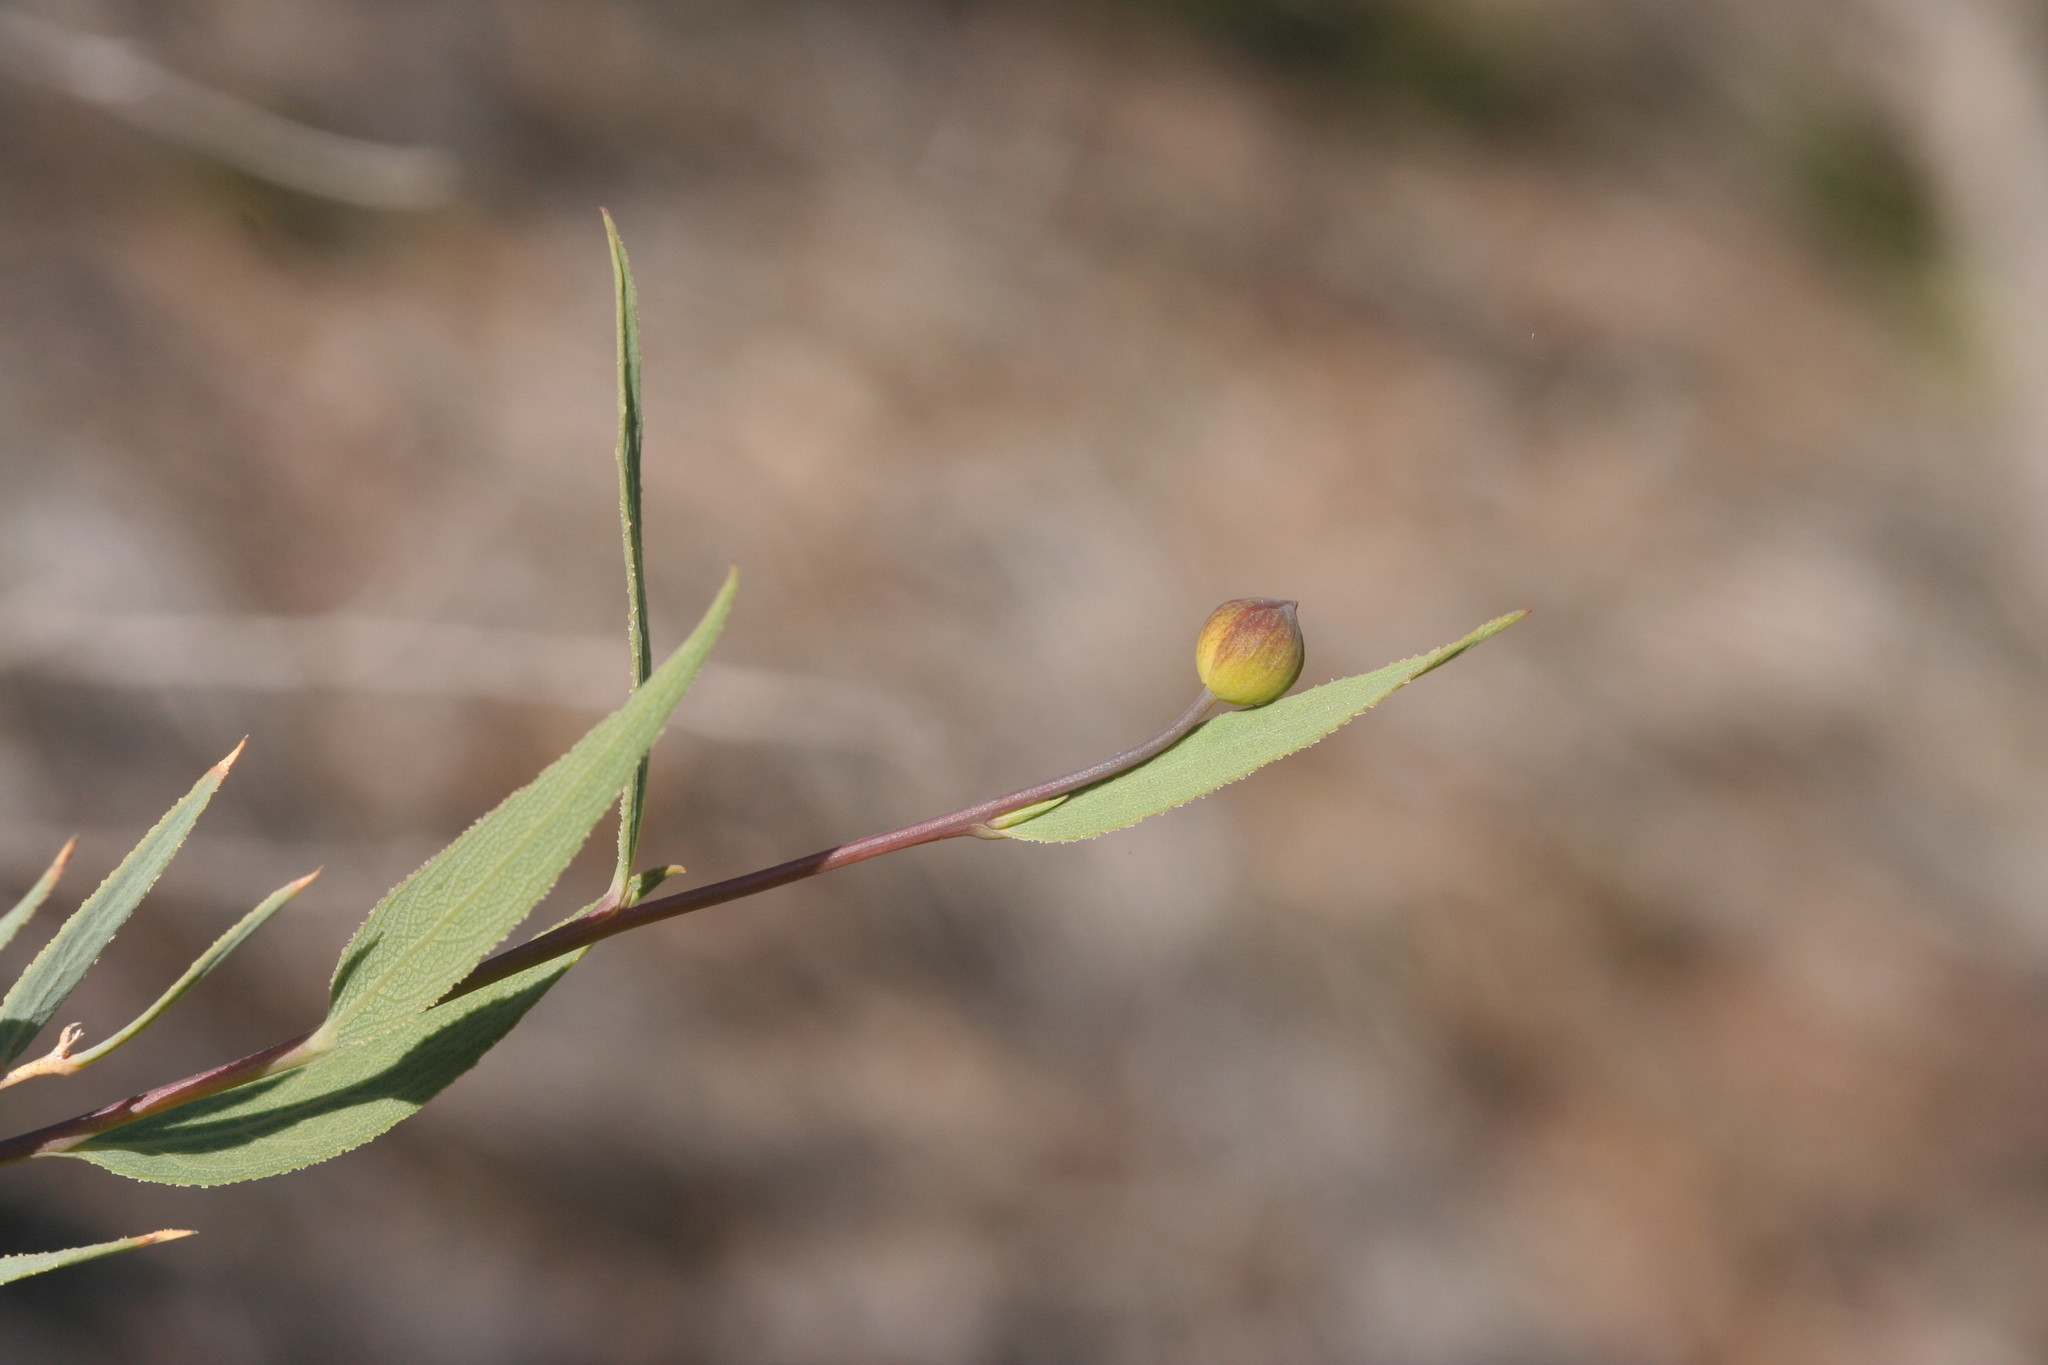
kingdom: Plantae
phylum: Tracheophyta
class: Magnoliopsida
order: Ranunculales
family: Papaveraceae
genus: Dendromecon
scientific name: Dendromecon rigida
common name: Tree poppy
